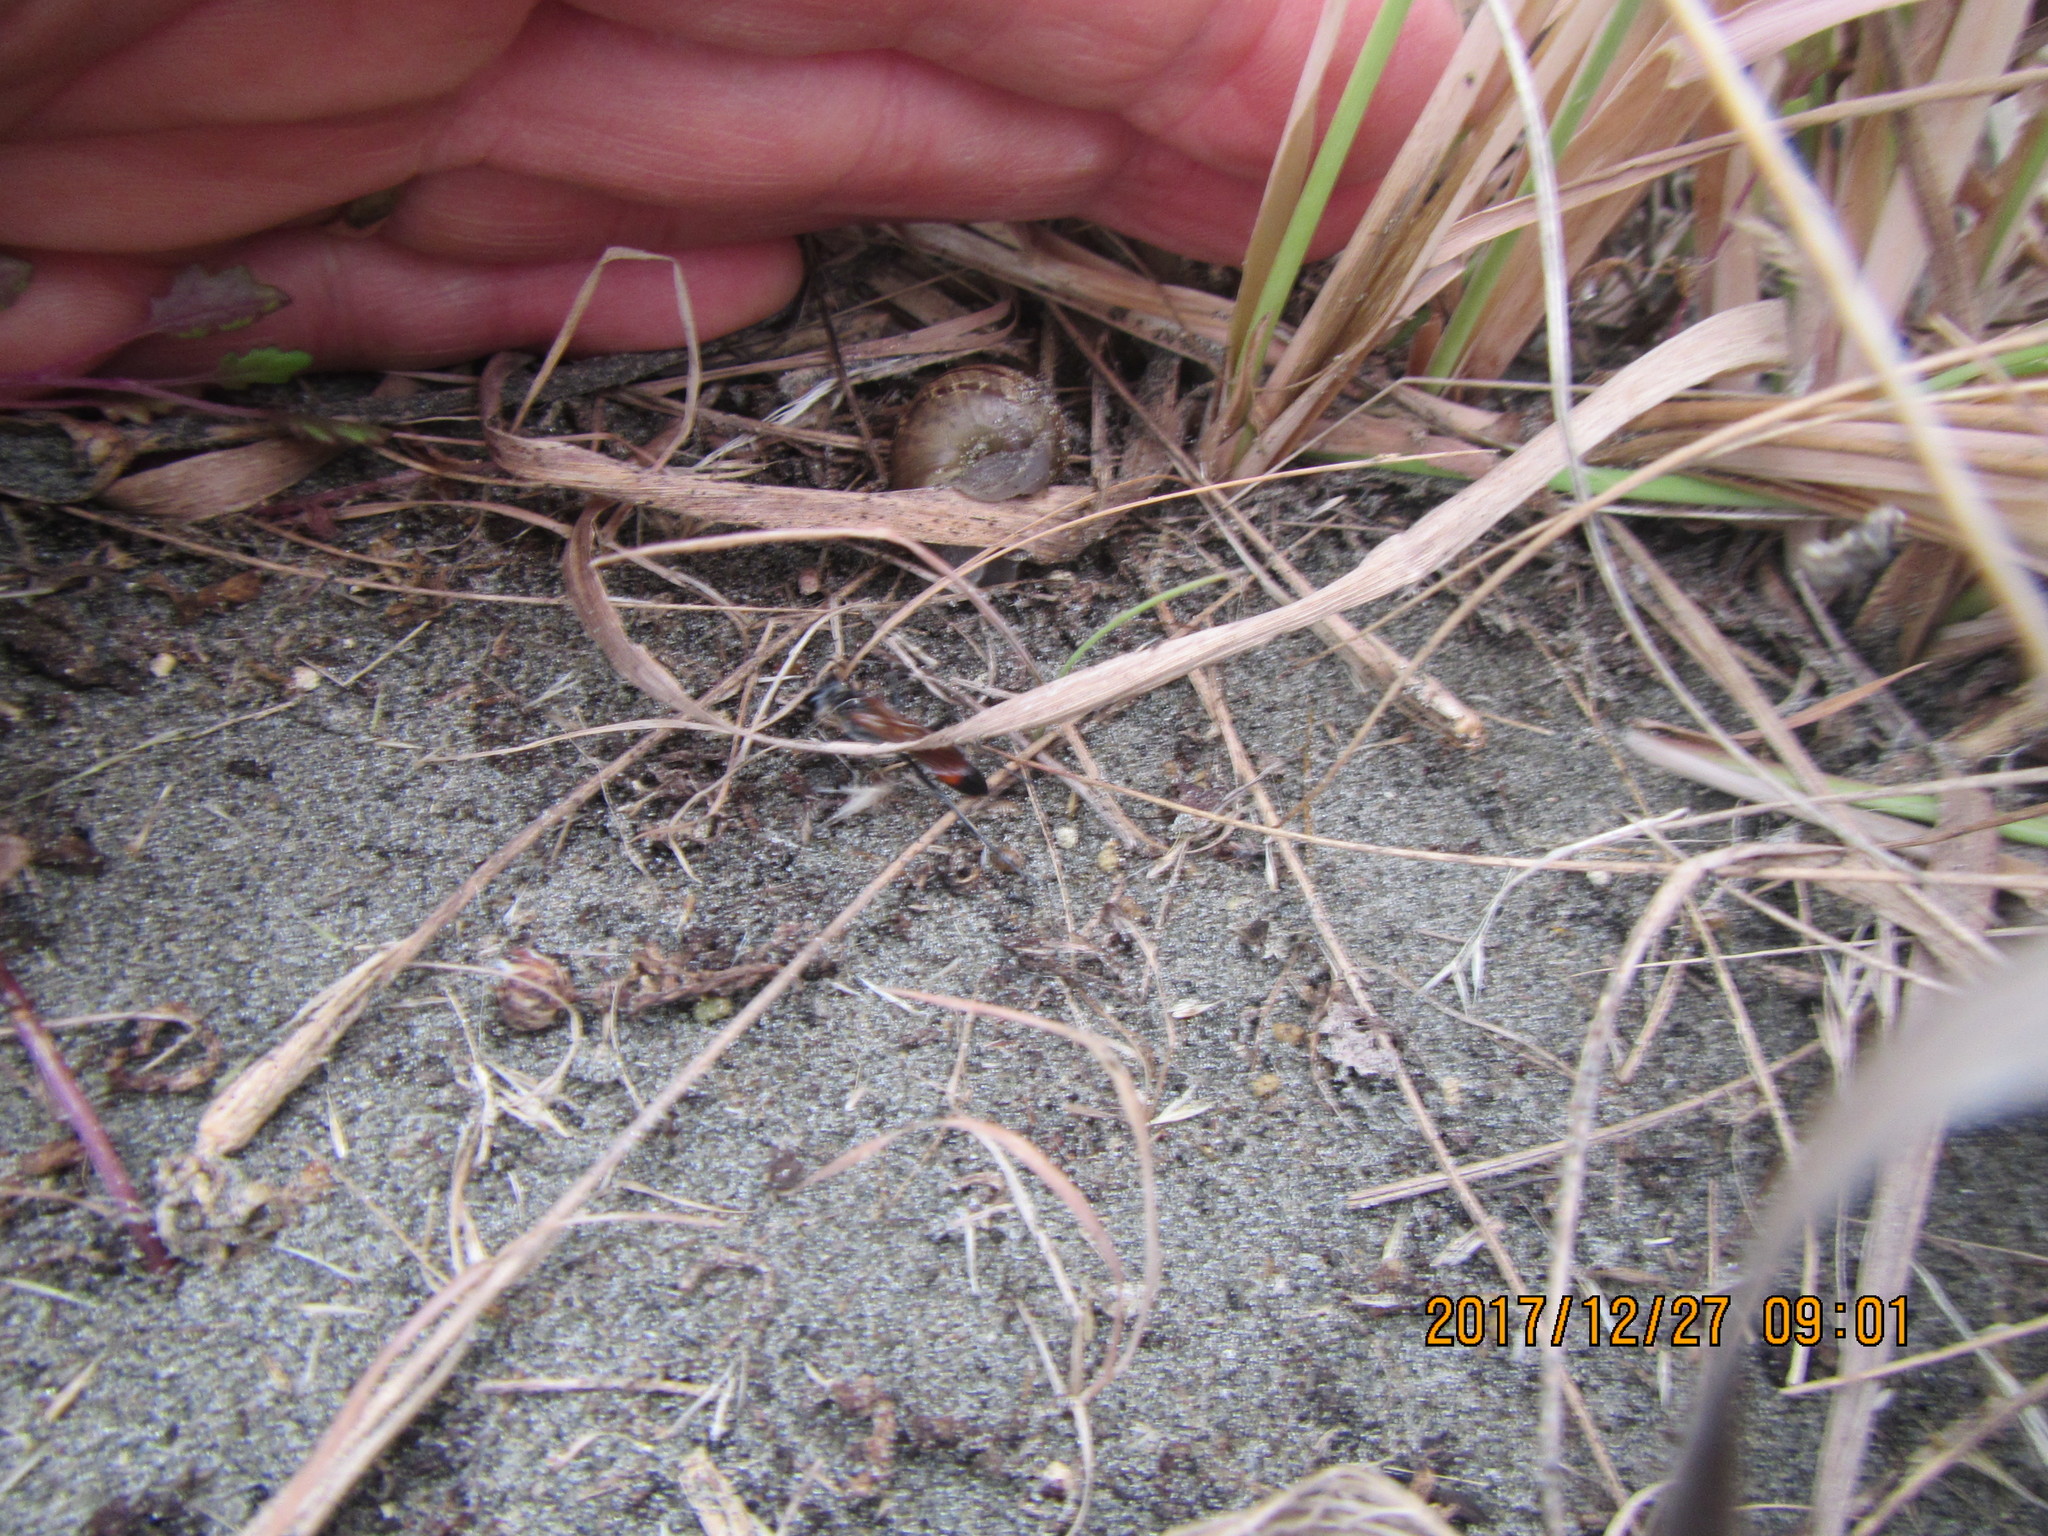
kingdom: Animalia
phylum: Arthropoda
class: Insecta
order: Hymenoptera
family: Sphecidae
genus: Podalonia
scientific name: Podalonia tydei
